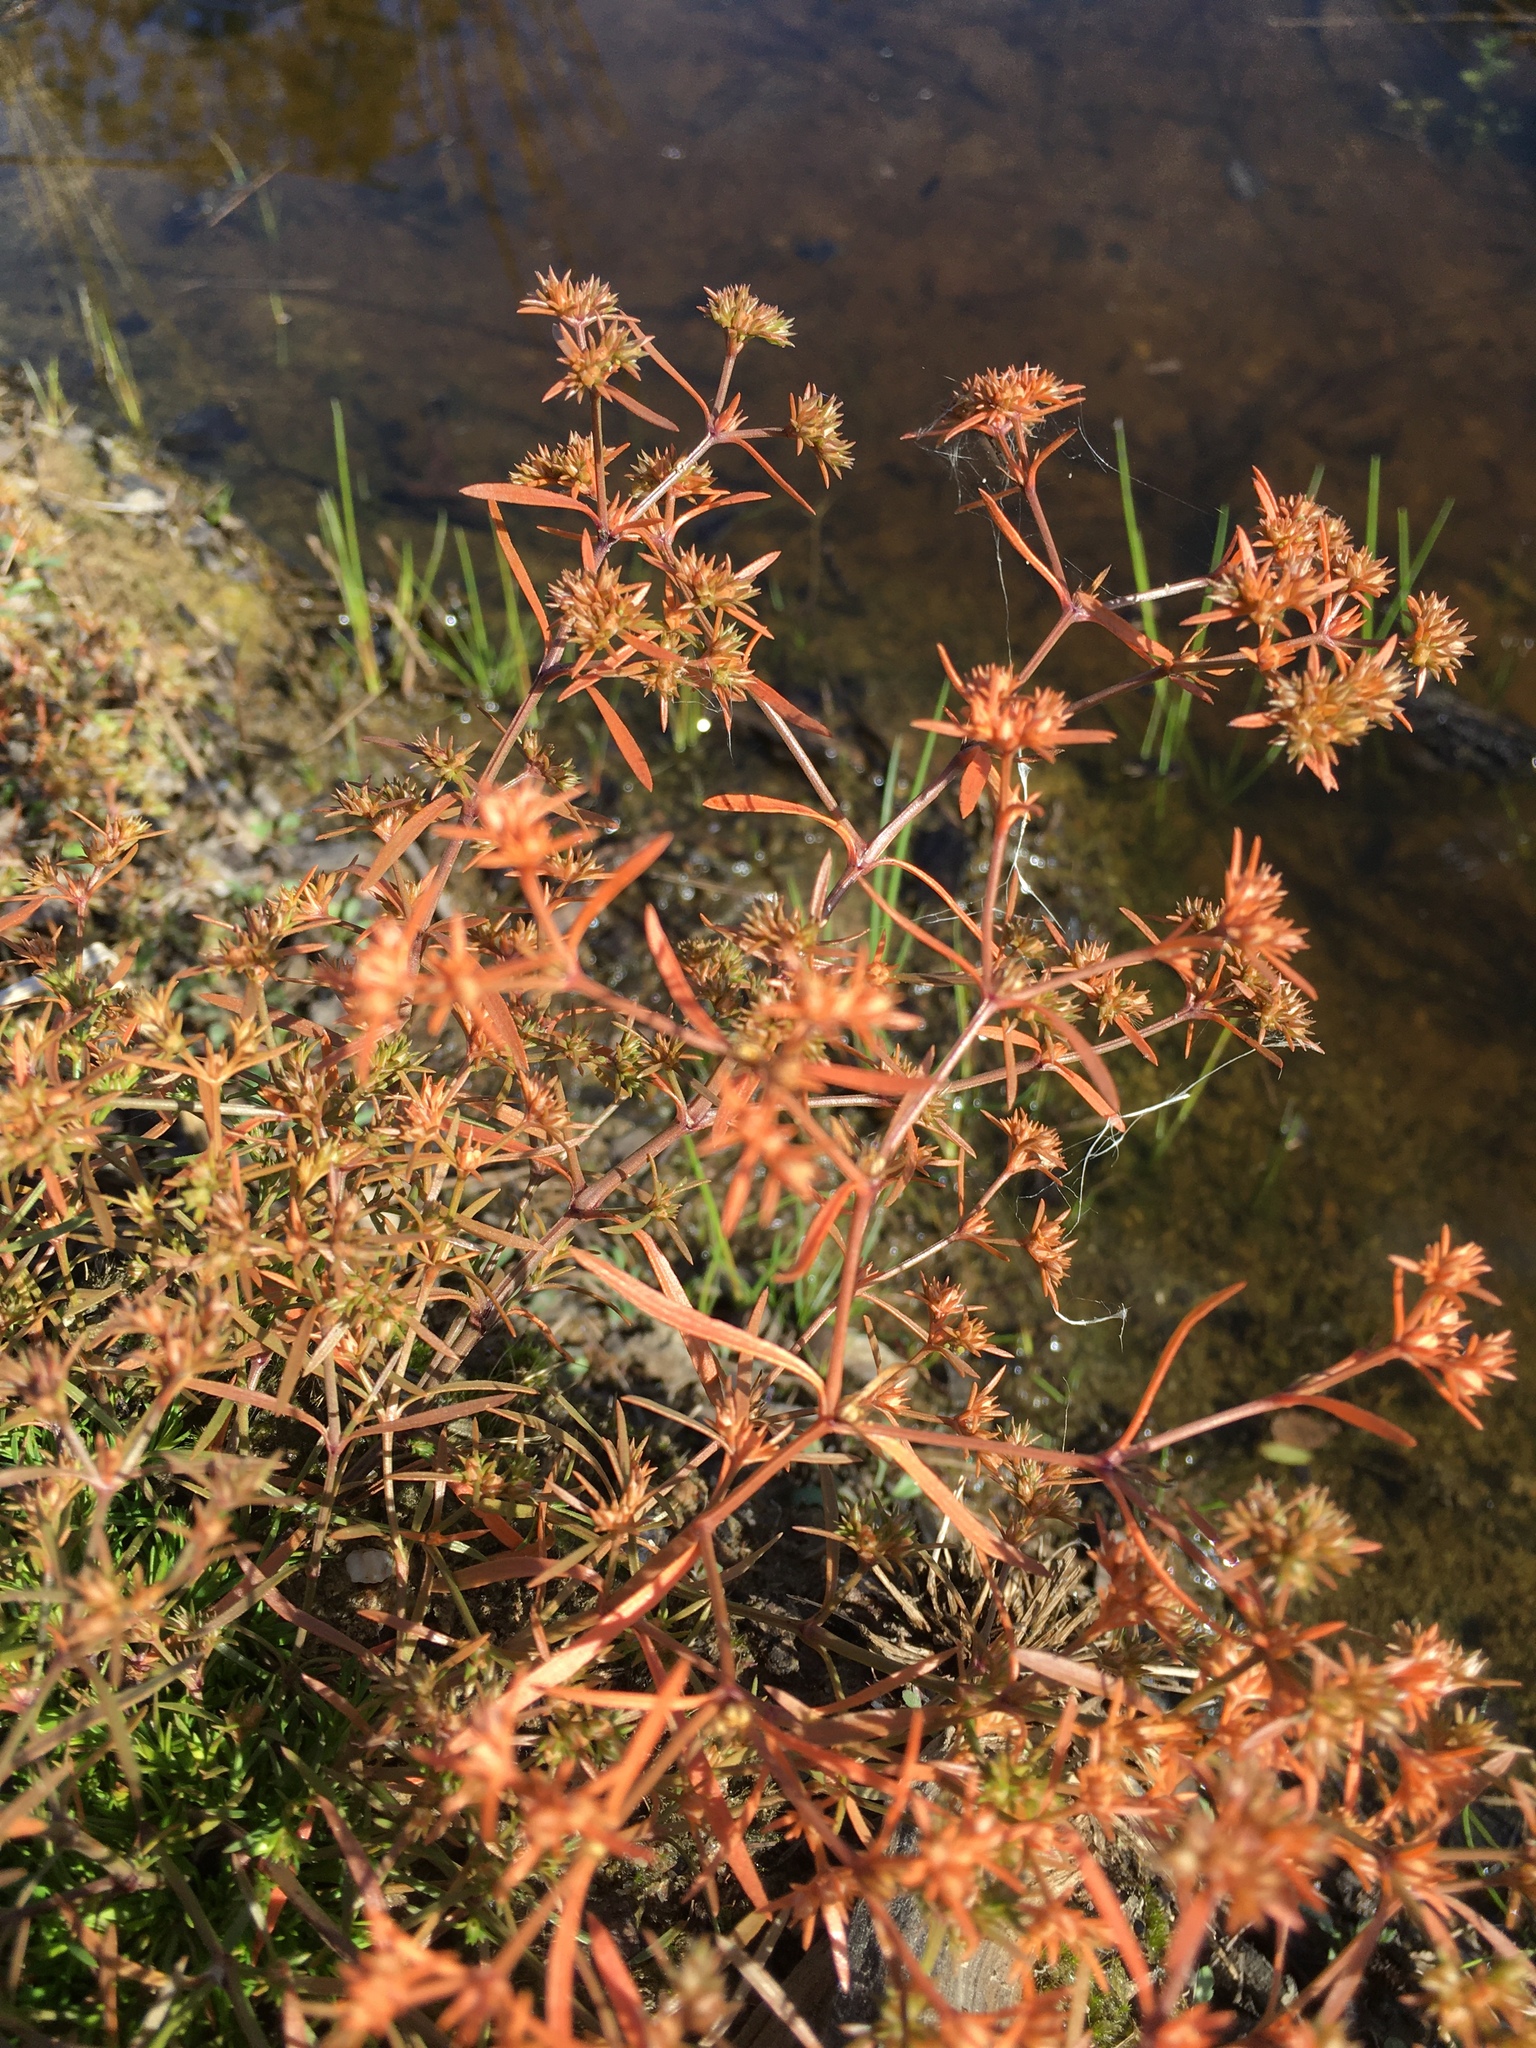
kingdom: Plantae
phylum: Tracheophyta
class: Magnoliopsida
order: Lamiales
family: Tetrachondraceae
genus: Polypremum
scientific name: Polypremum procumbens
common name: Juniper-leaf
